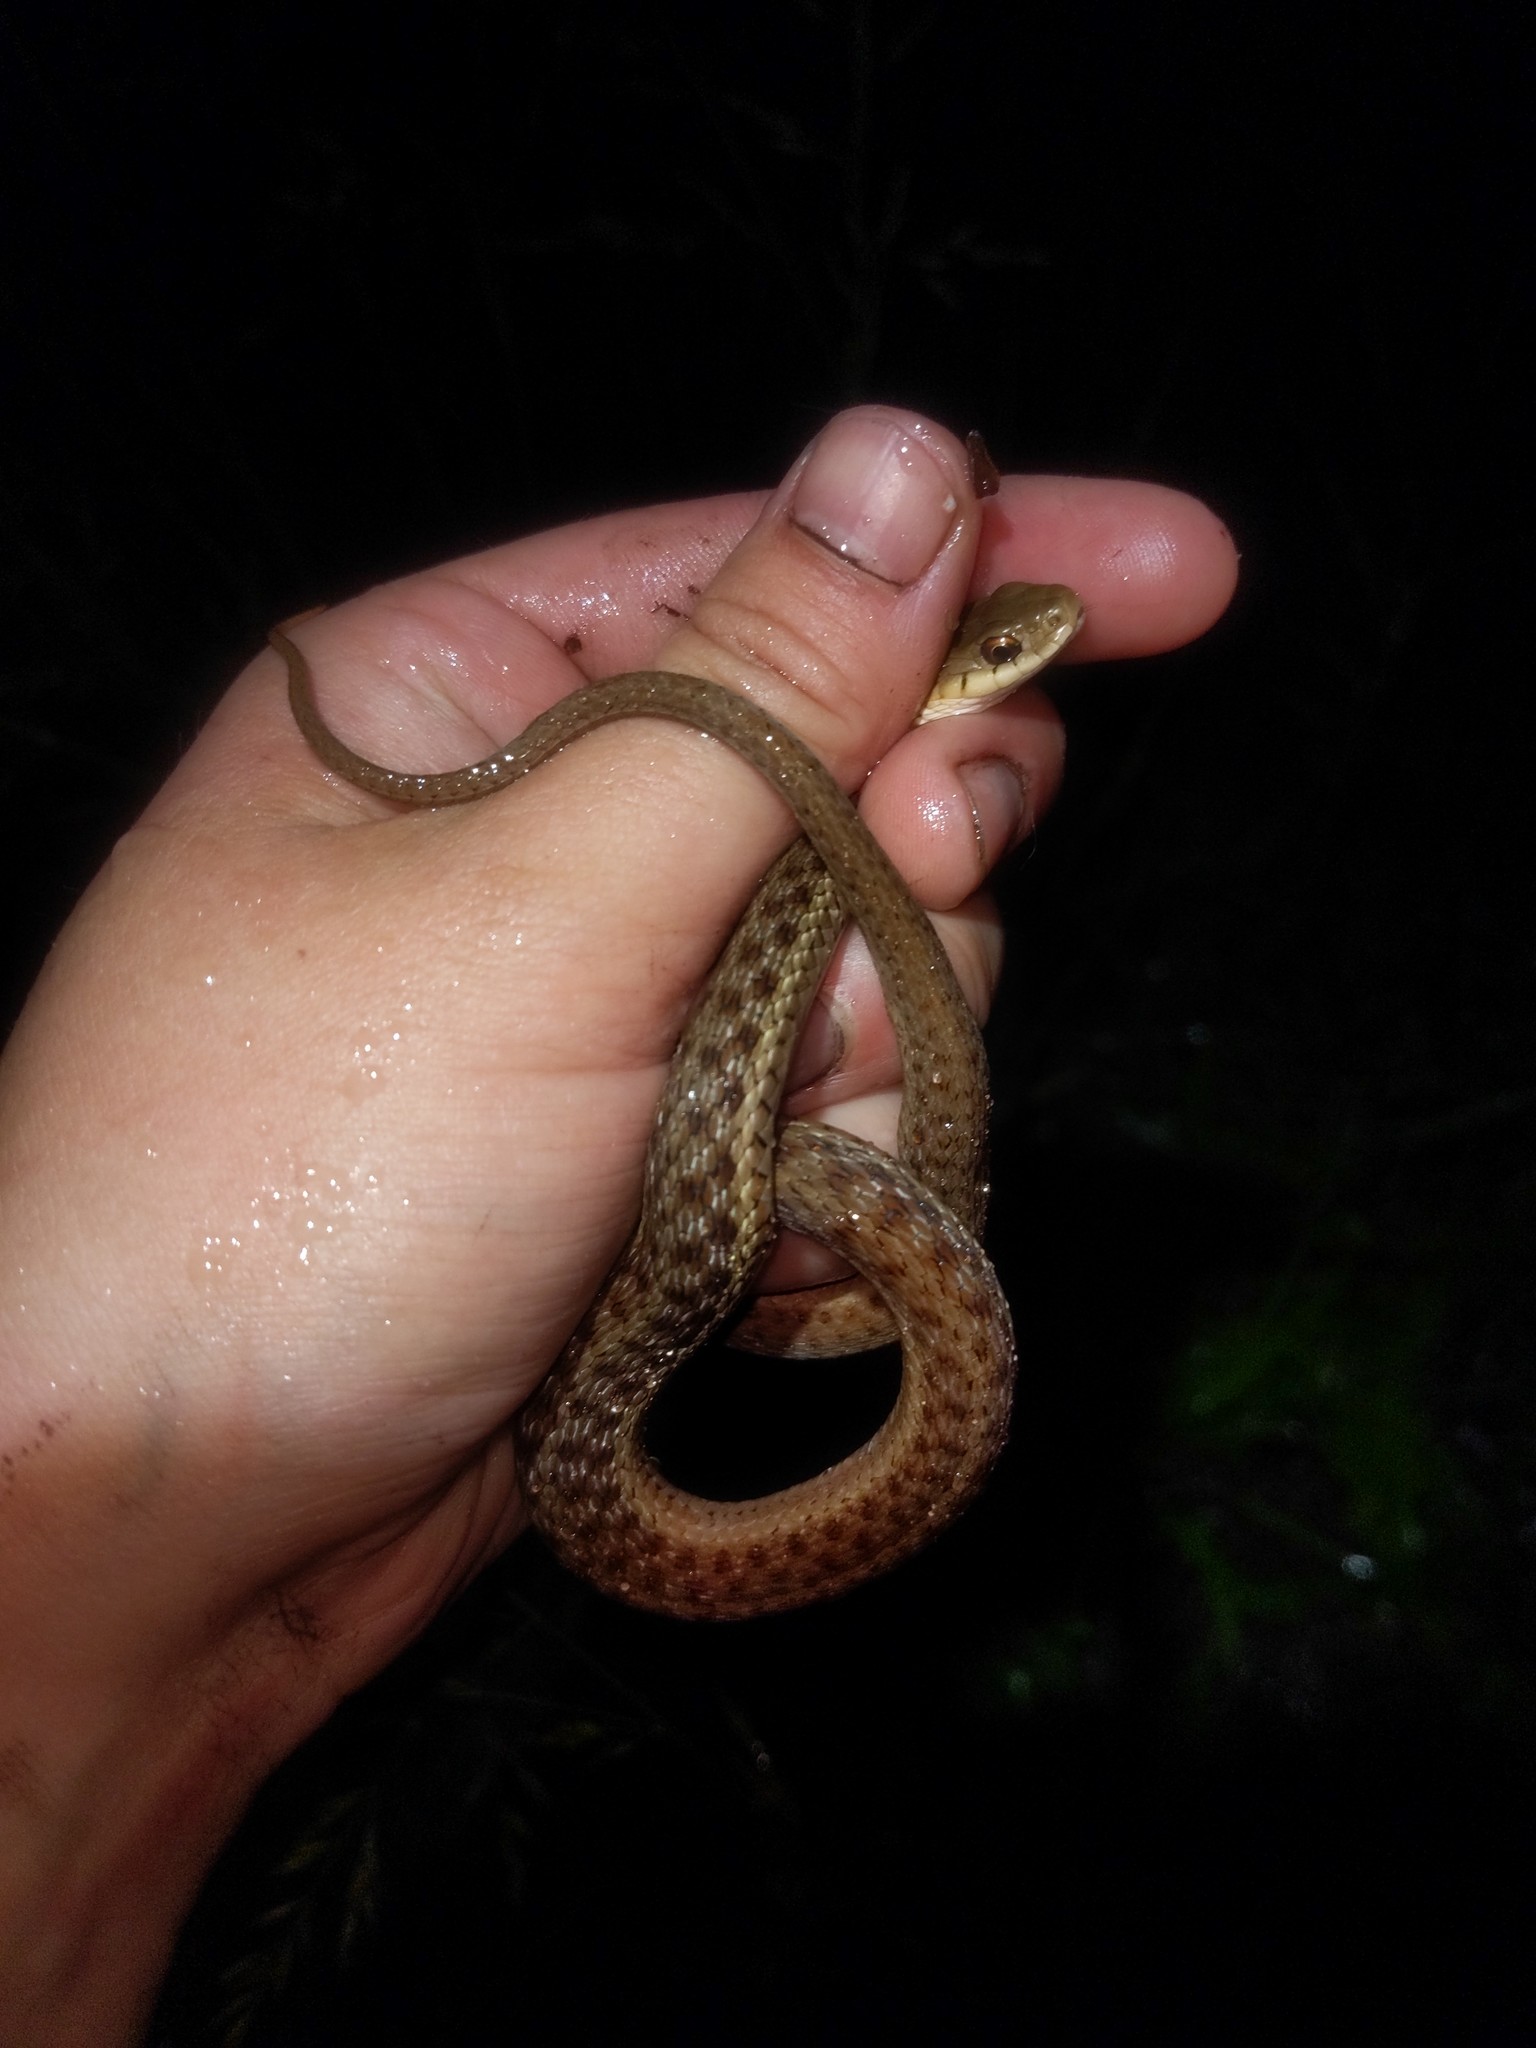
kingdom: Animalia
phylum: Chordata
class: Squamata
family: Colubridae
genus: Thamnophis
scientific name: Thamnophis sirtalis
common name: Common garter snake
